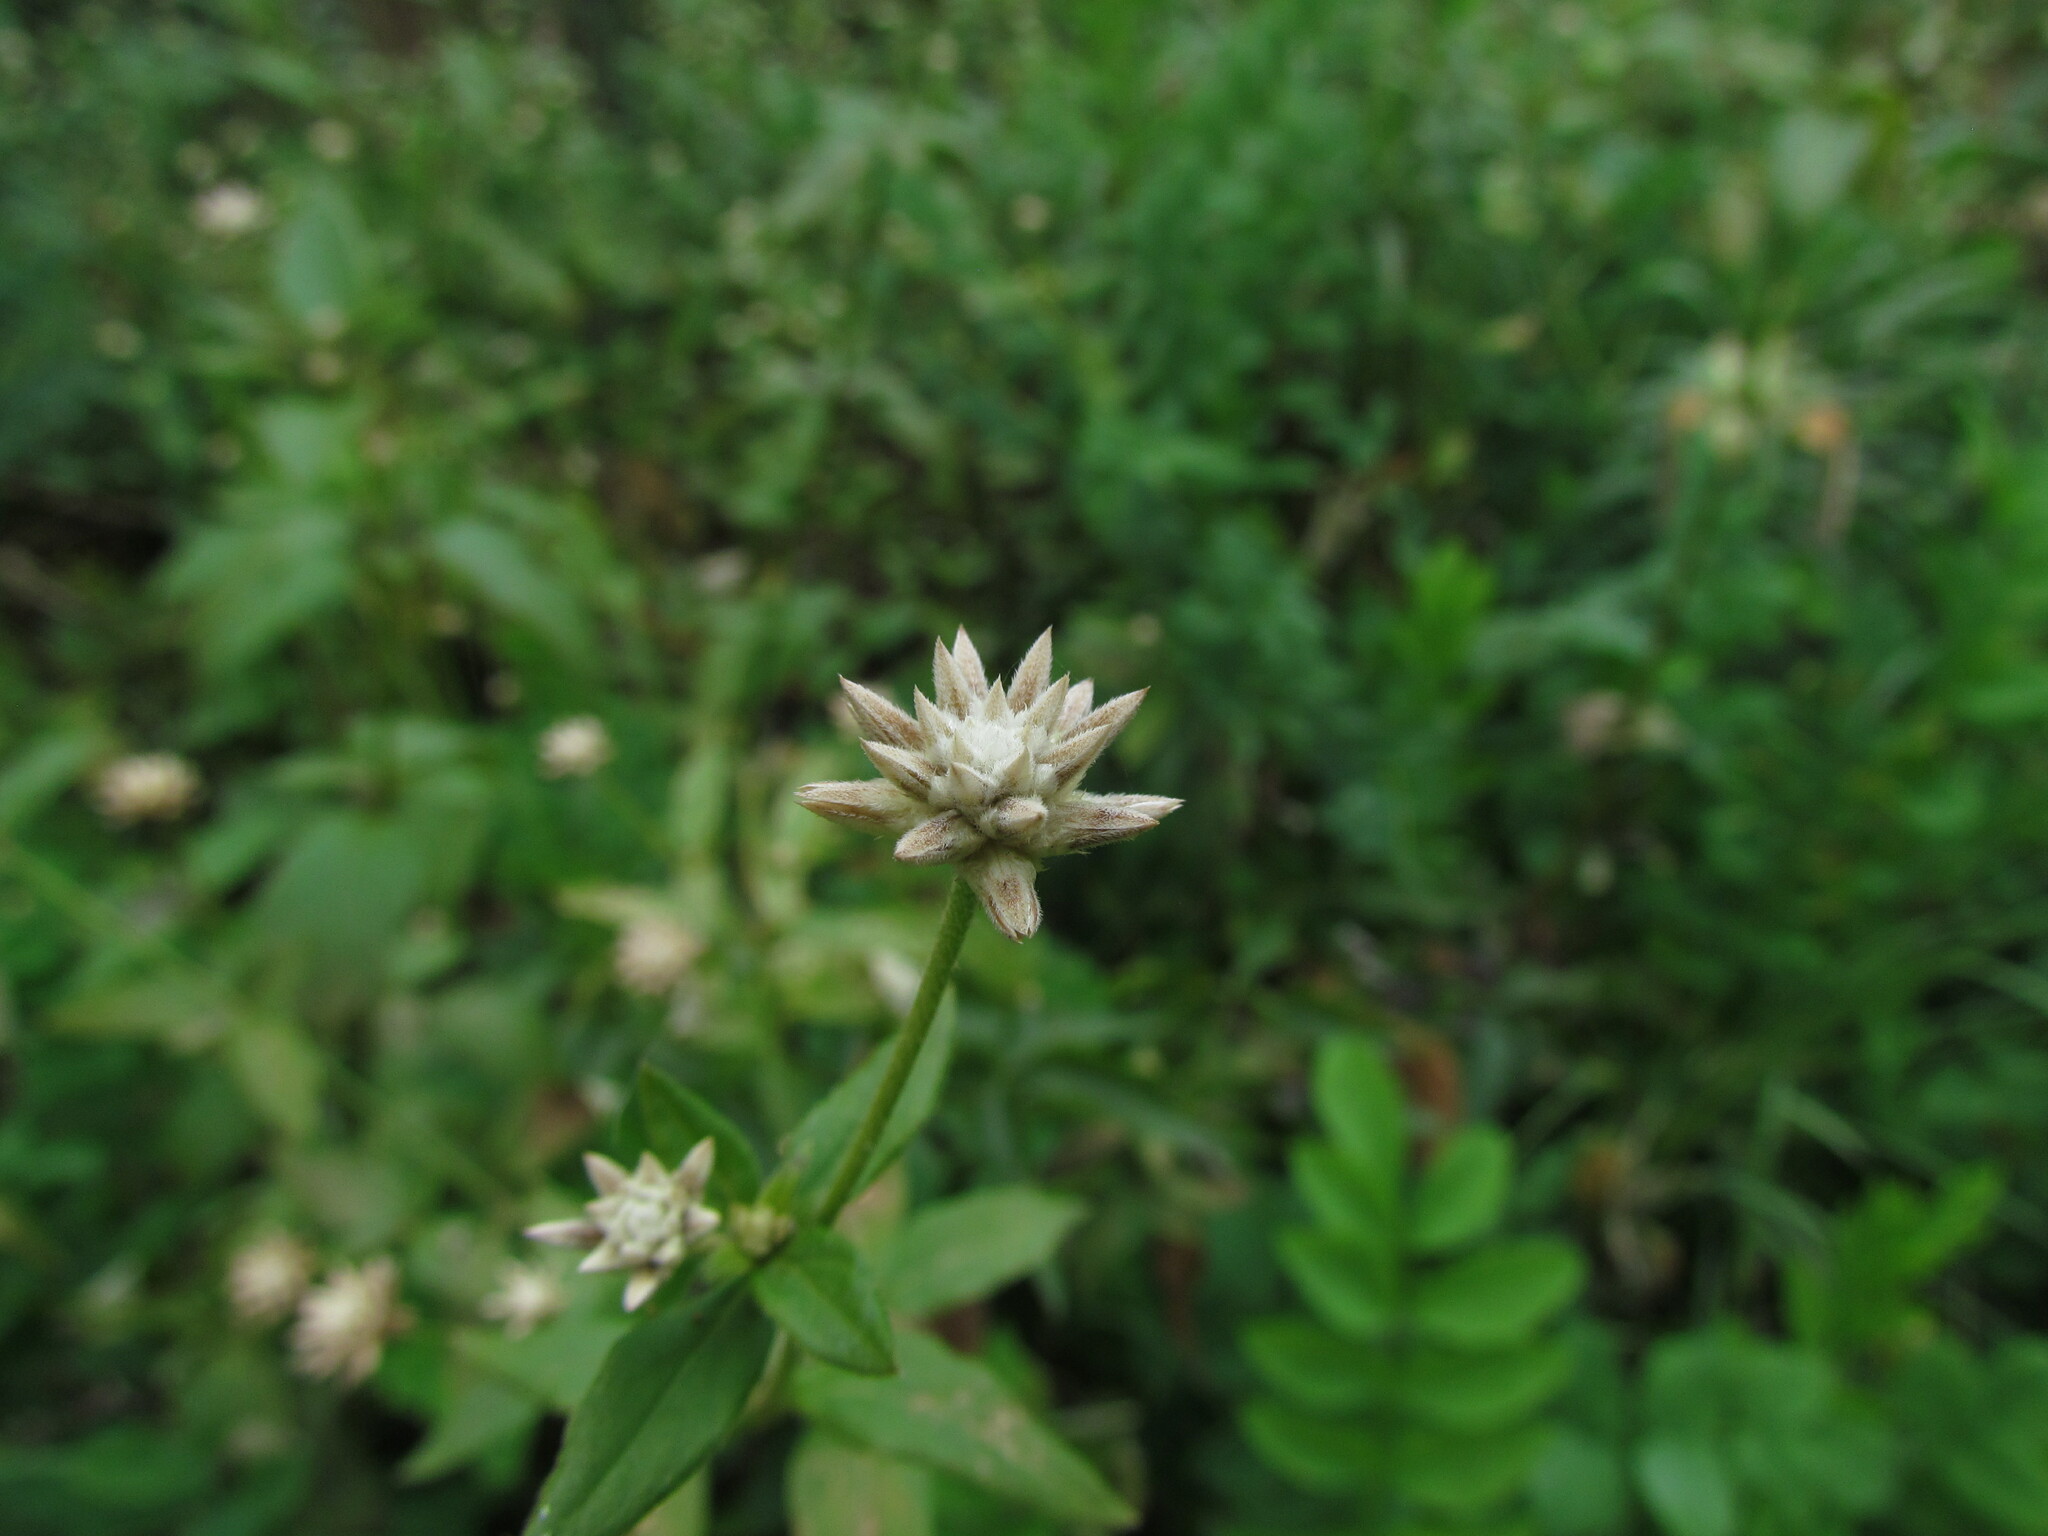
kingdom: Plantae
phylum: Tracheophyta
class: Magnoliopsida
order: Caryophyllales
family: Amaranthaceae
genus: Gomphrena
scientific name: Gomphrena elegans
